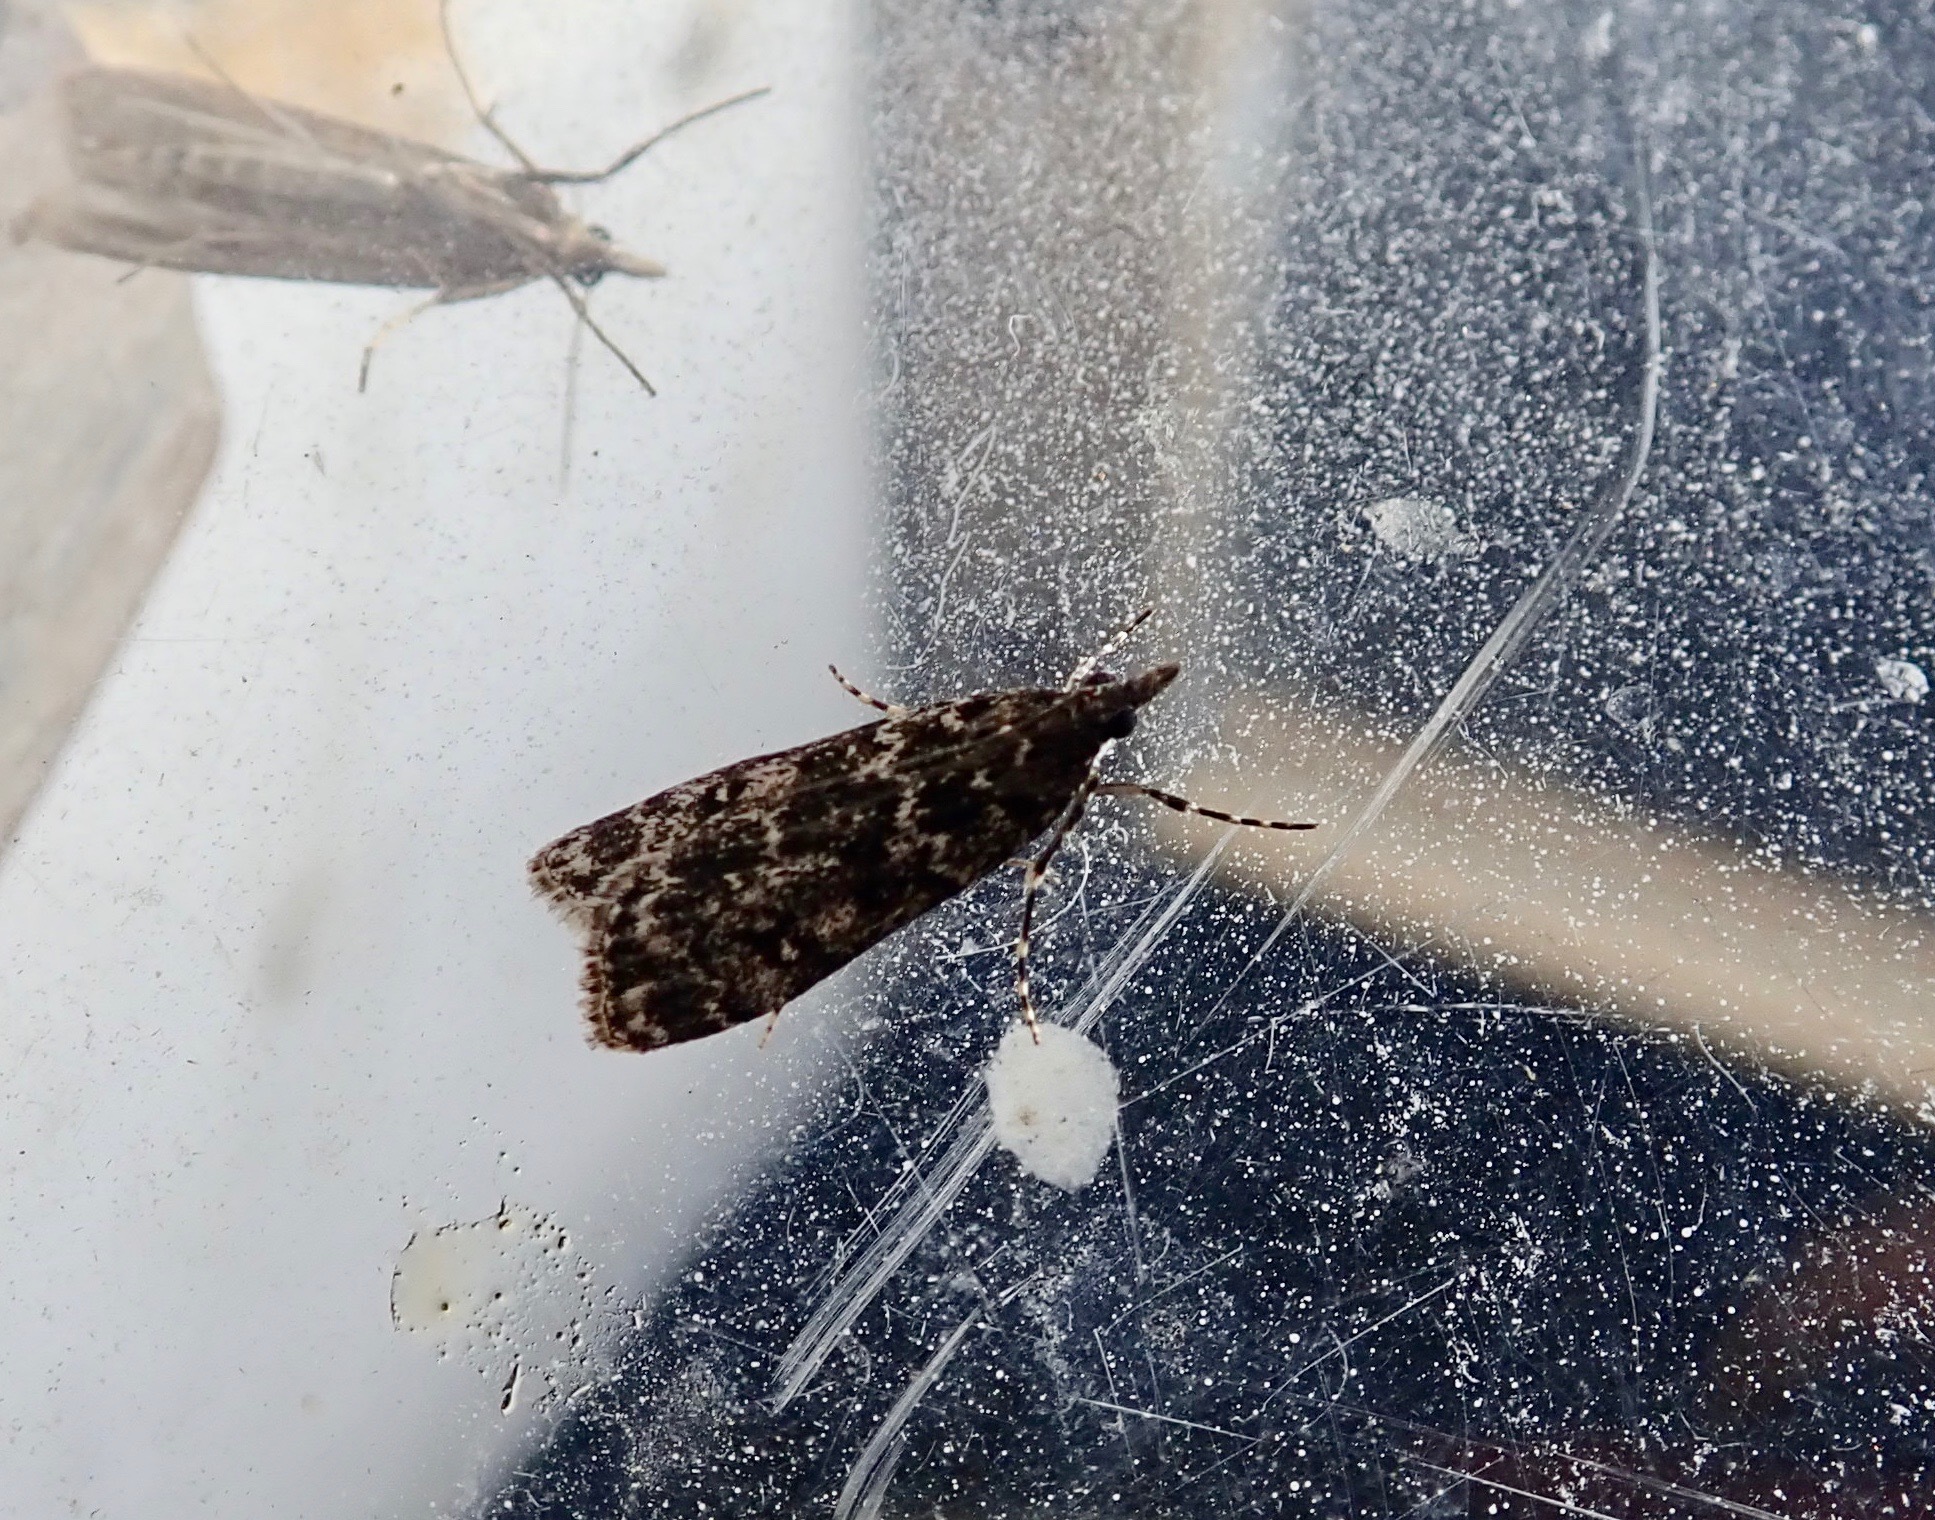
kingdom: Animalia
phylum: Arthropoda
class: Insecta
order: Lepidoptera
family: Crambidae
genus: Eudonia
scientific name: Eudonia philerga
